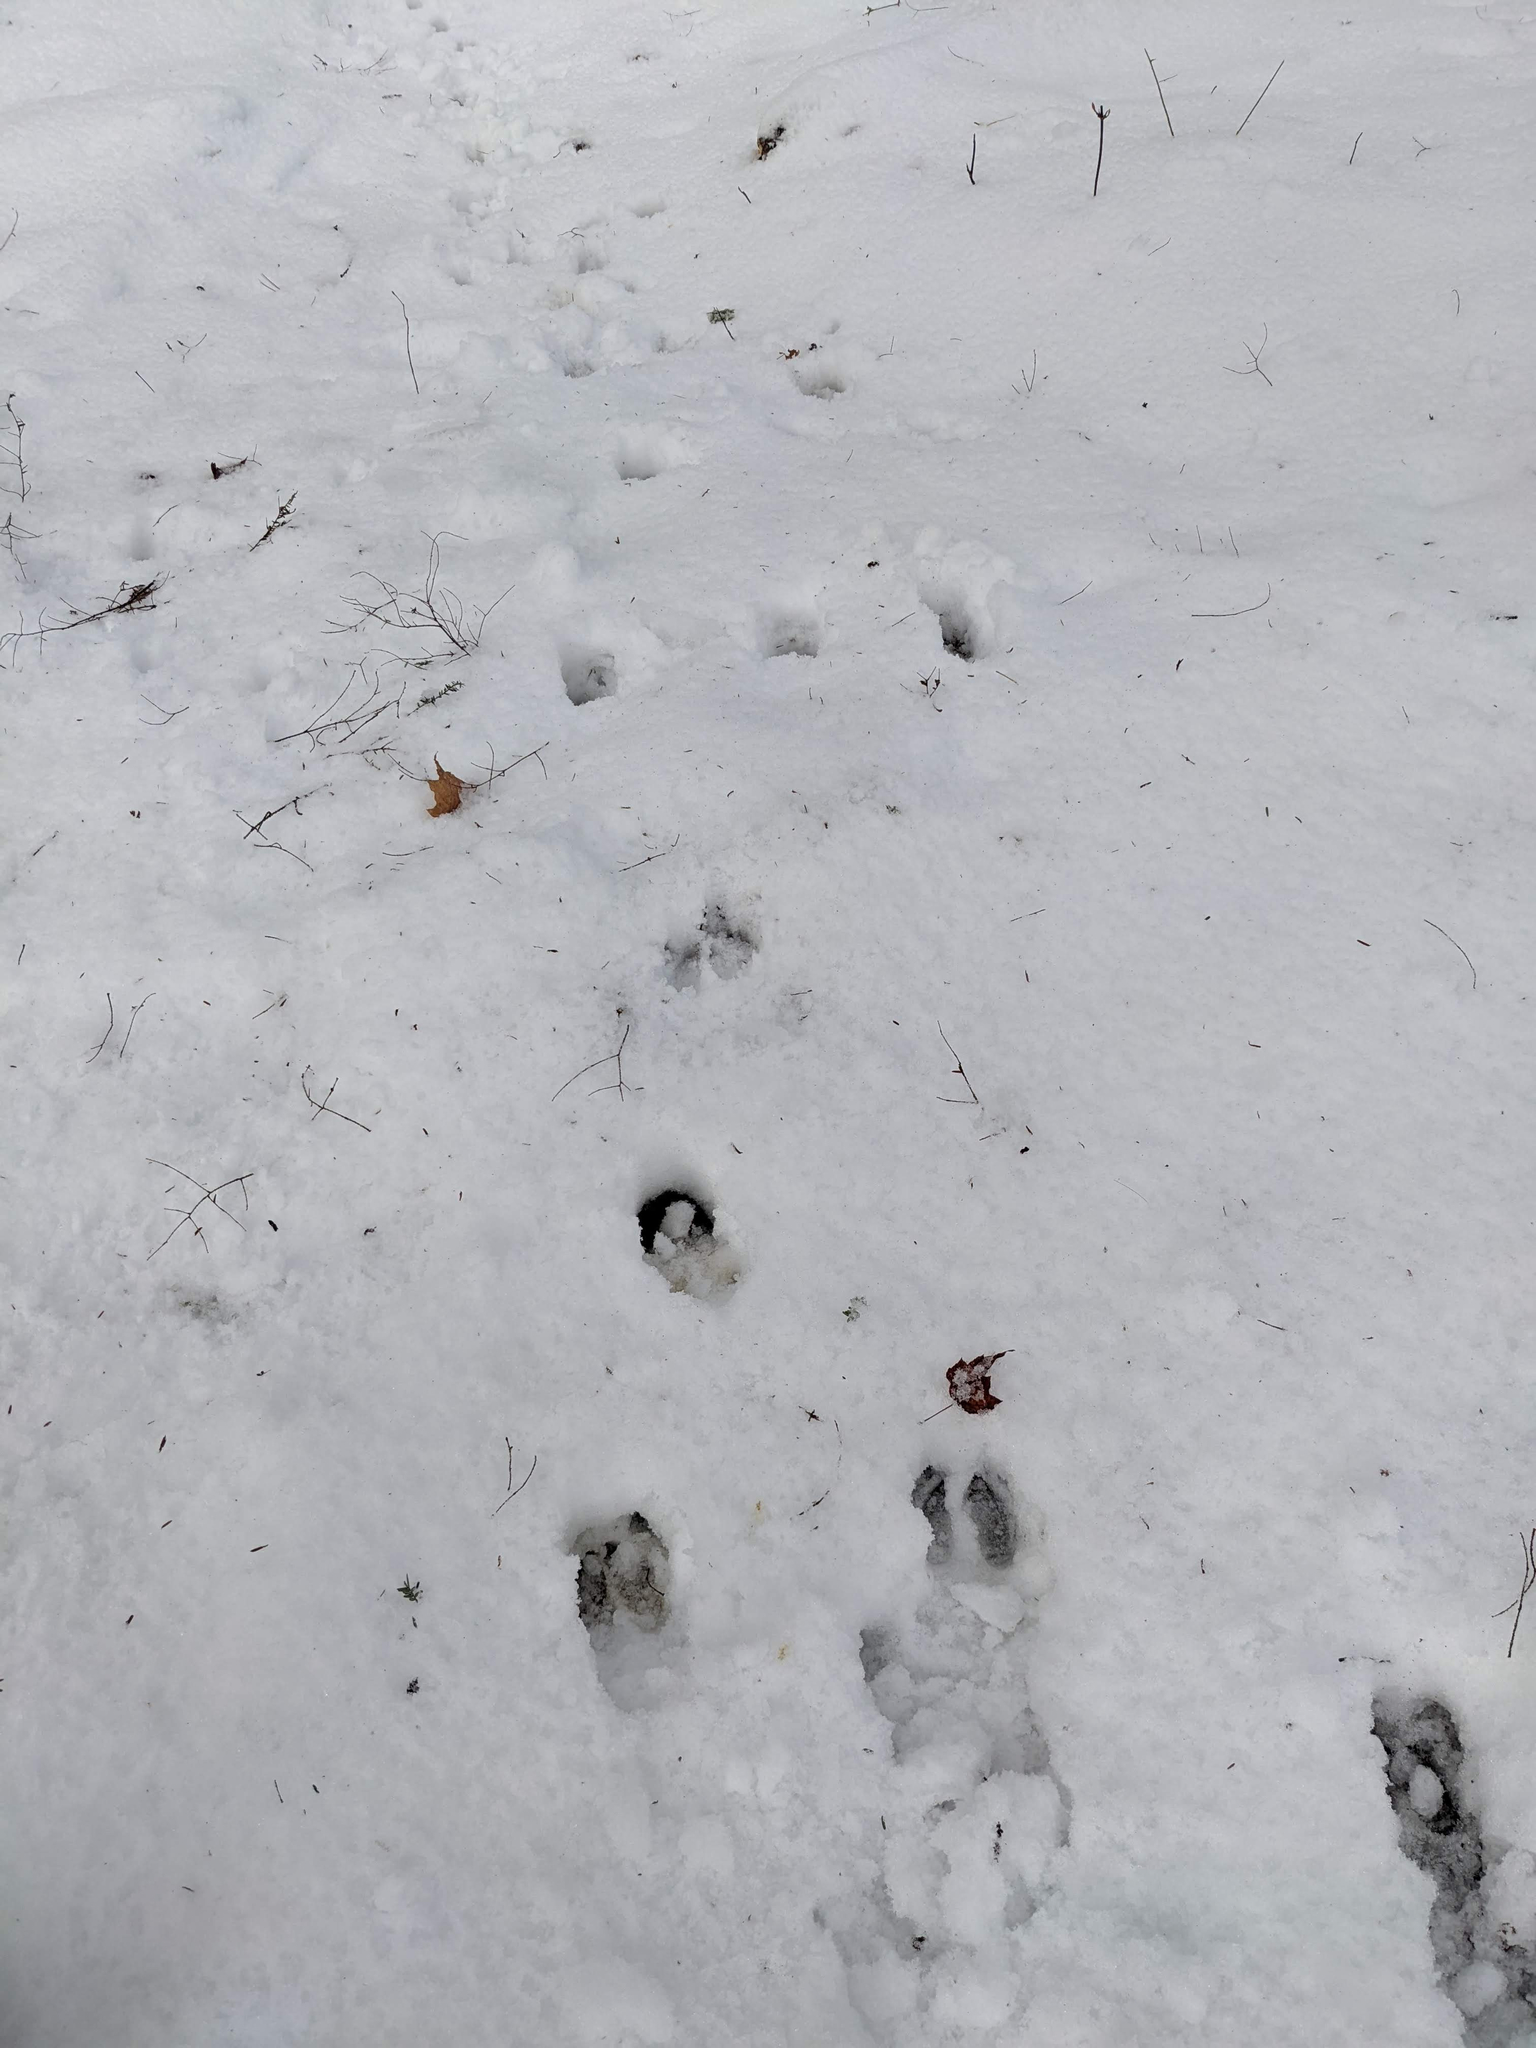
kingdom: Animalia
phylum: Chordata
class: Mammalia
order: Artiodactyla
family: Cervidae
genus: Odocoileus
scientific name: Odocoileus virginianus
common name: White-tailed deer
